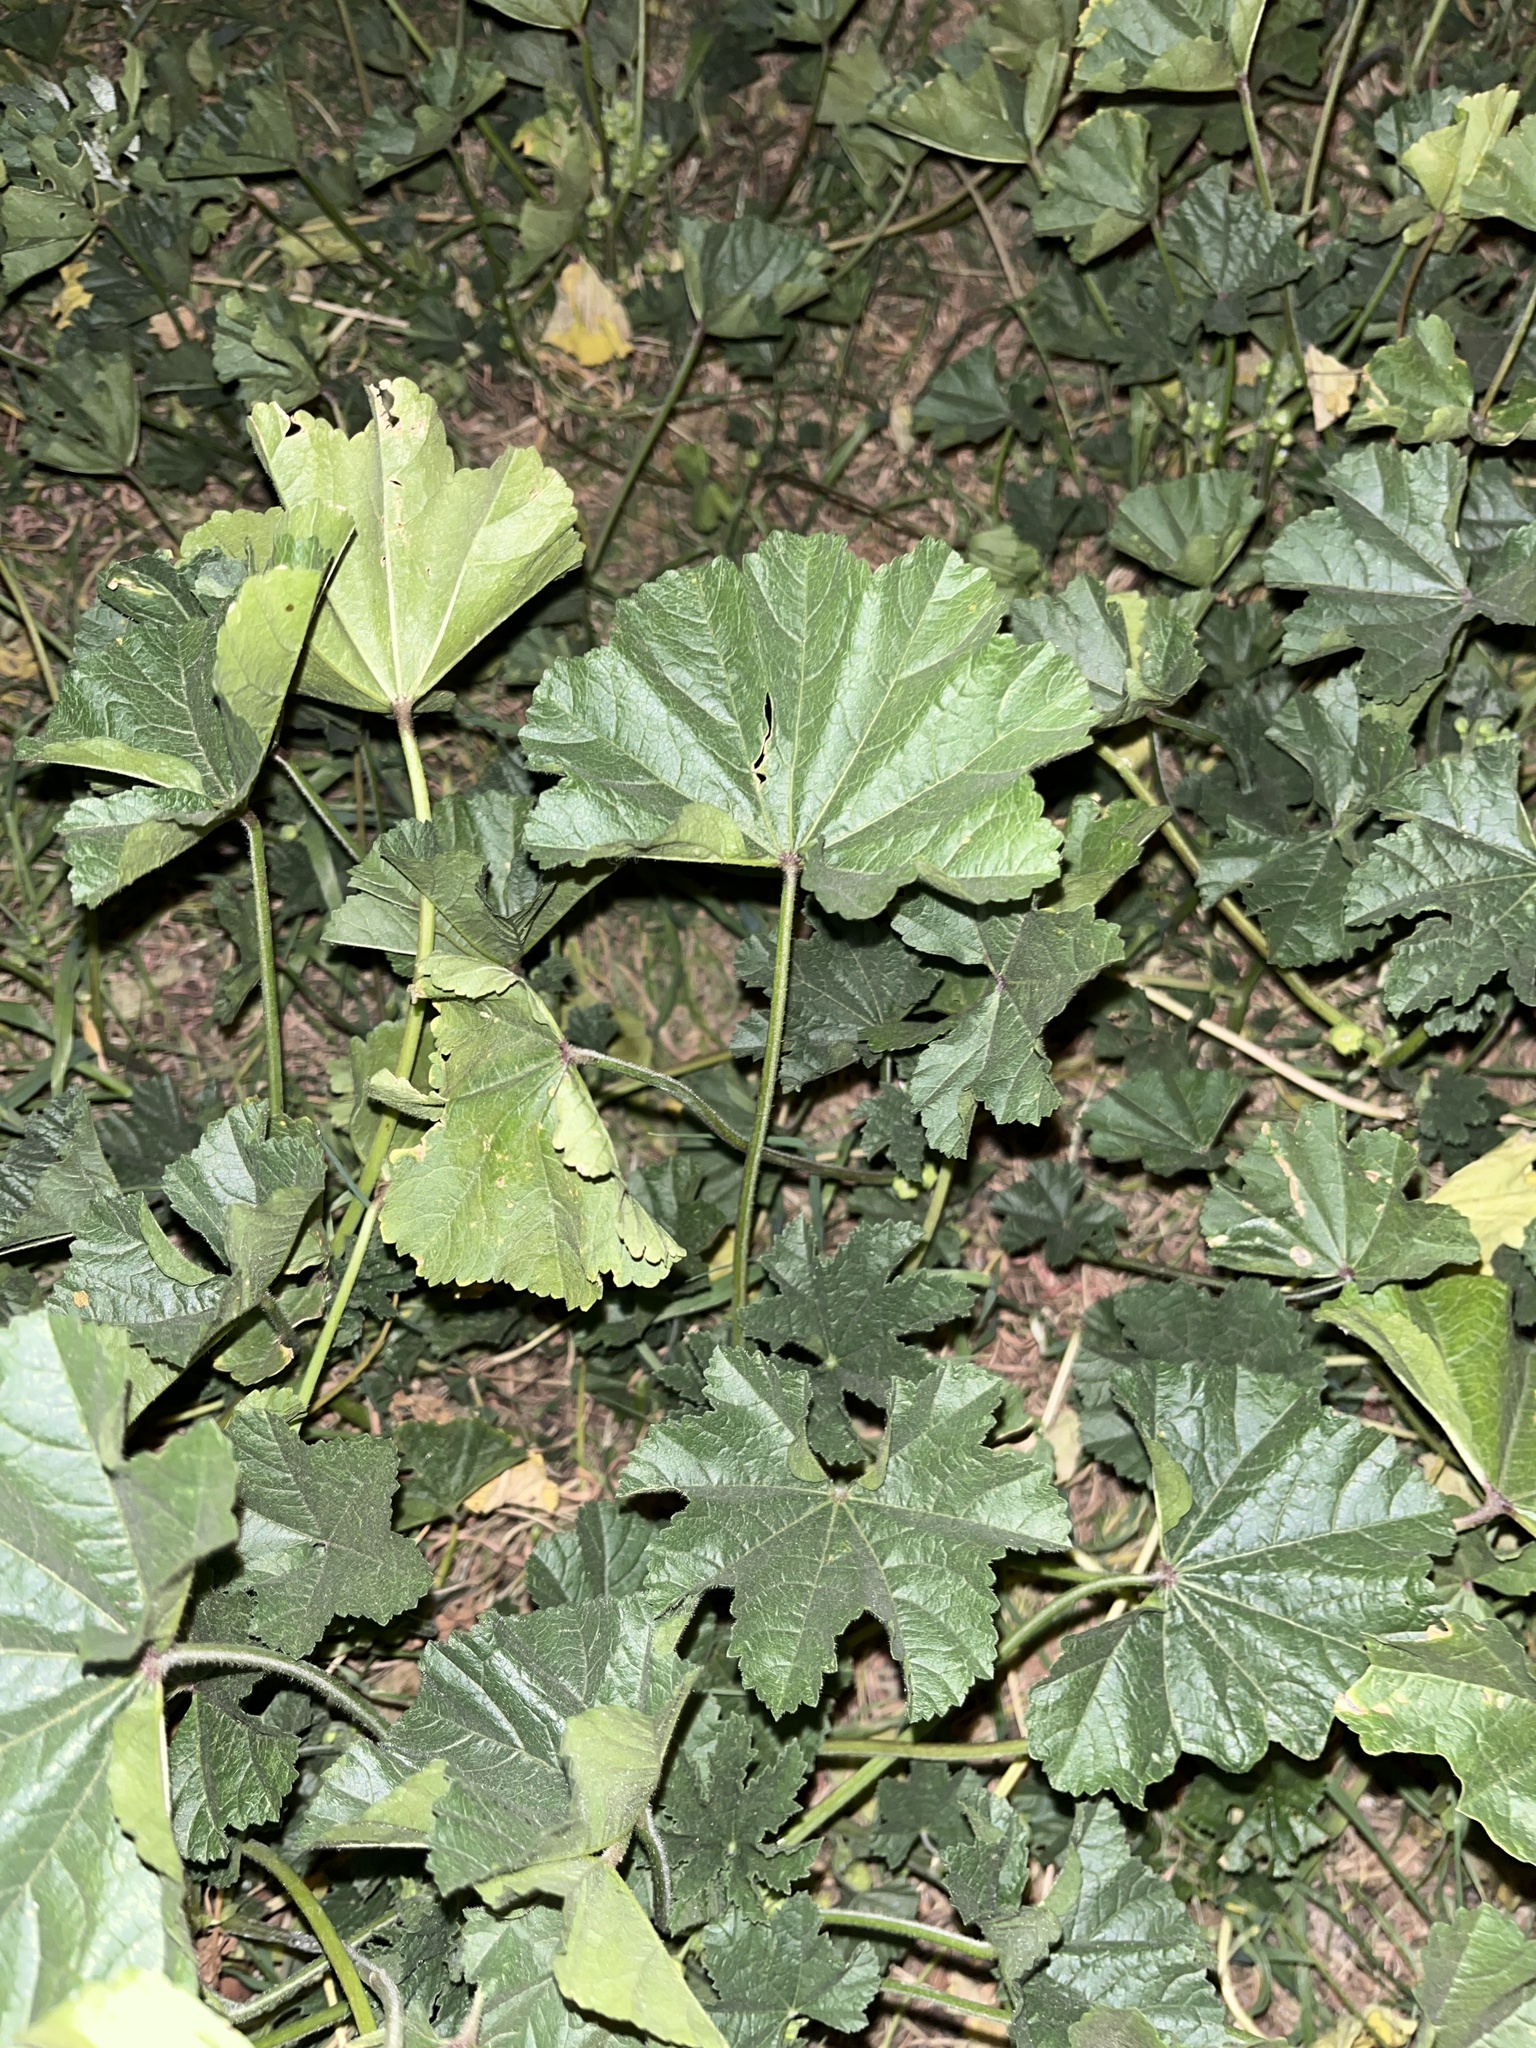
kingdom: Plantae
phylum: Tracheophyta
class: Magnoliopsida
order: Malvales
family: Malvaceae
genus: Malva
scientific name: Malva parviflora
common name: Least mallow
